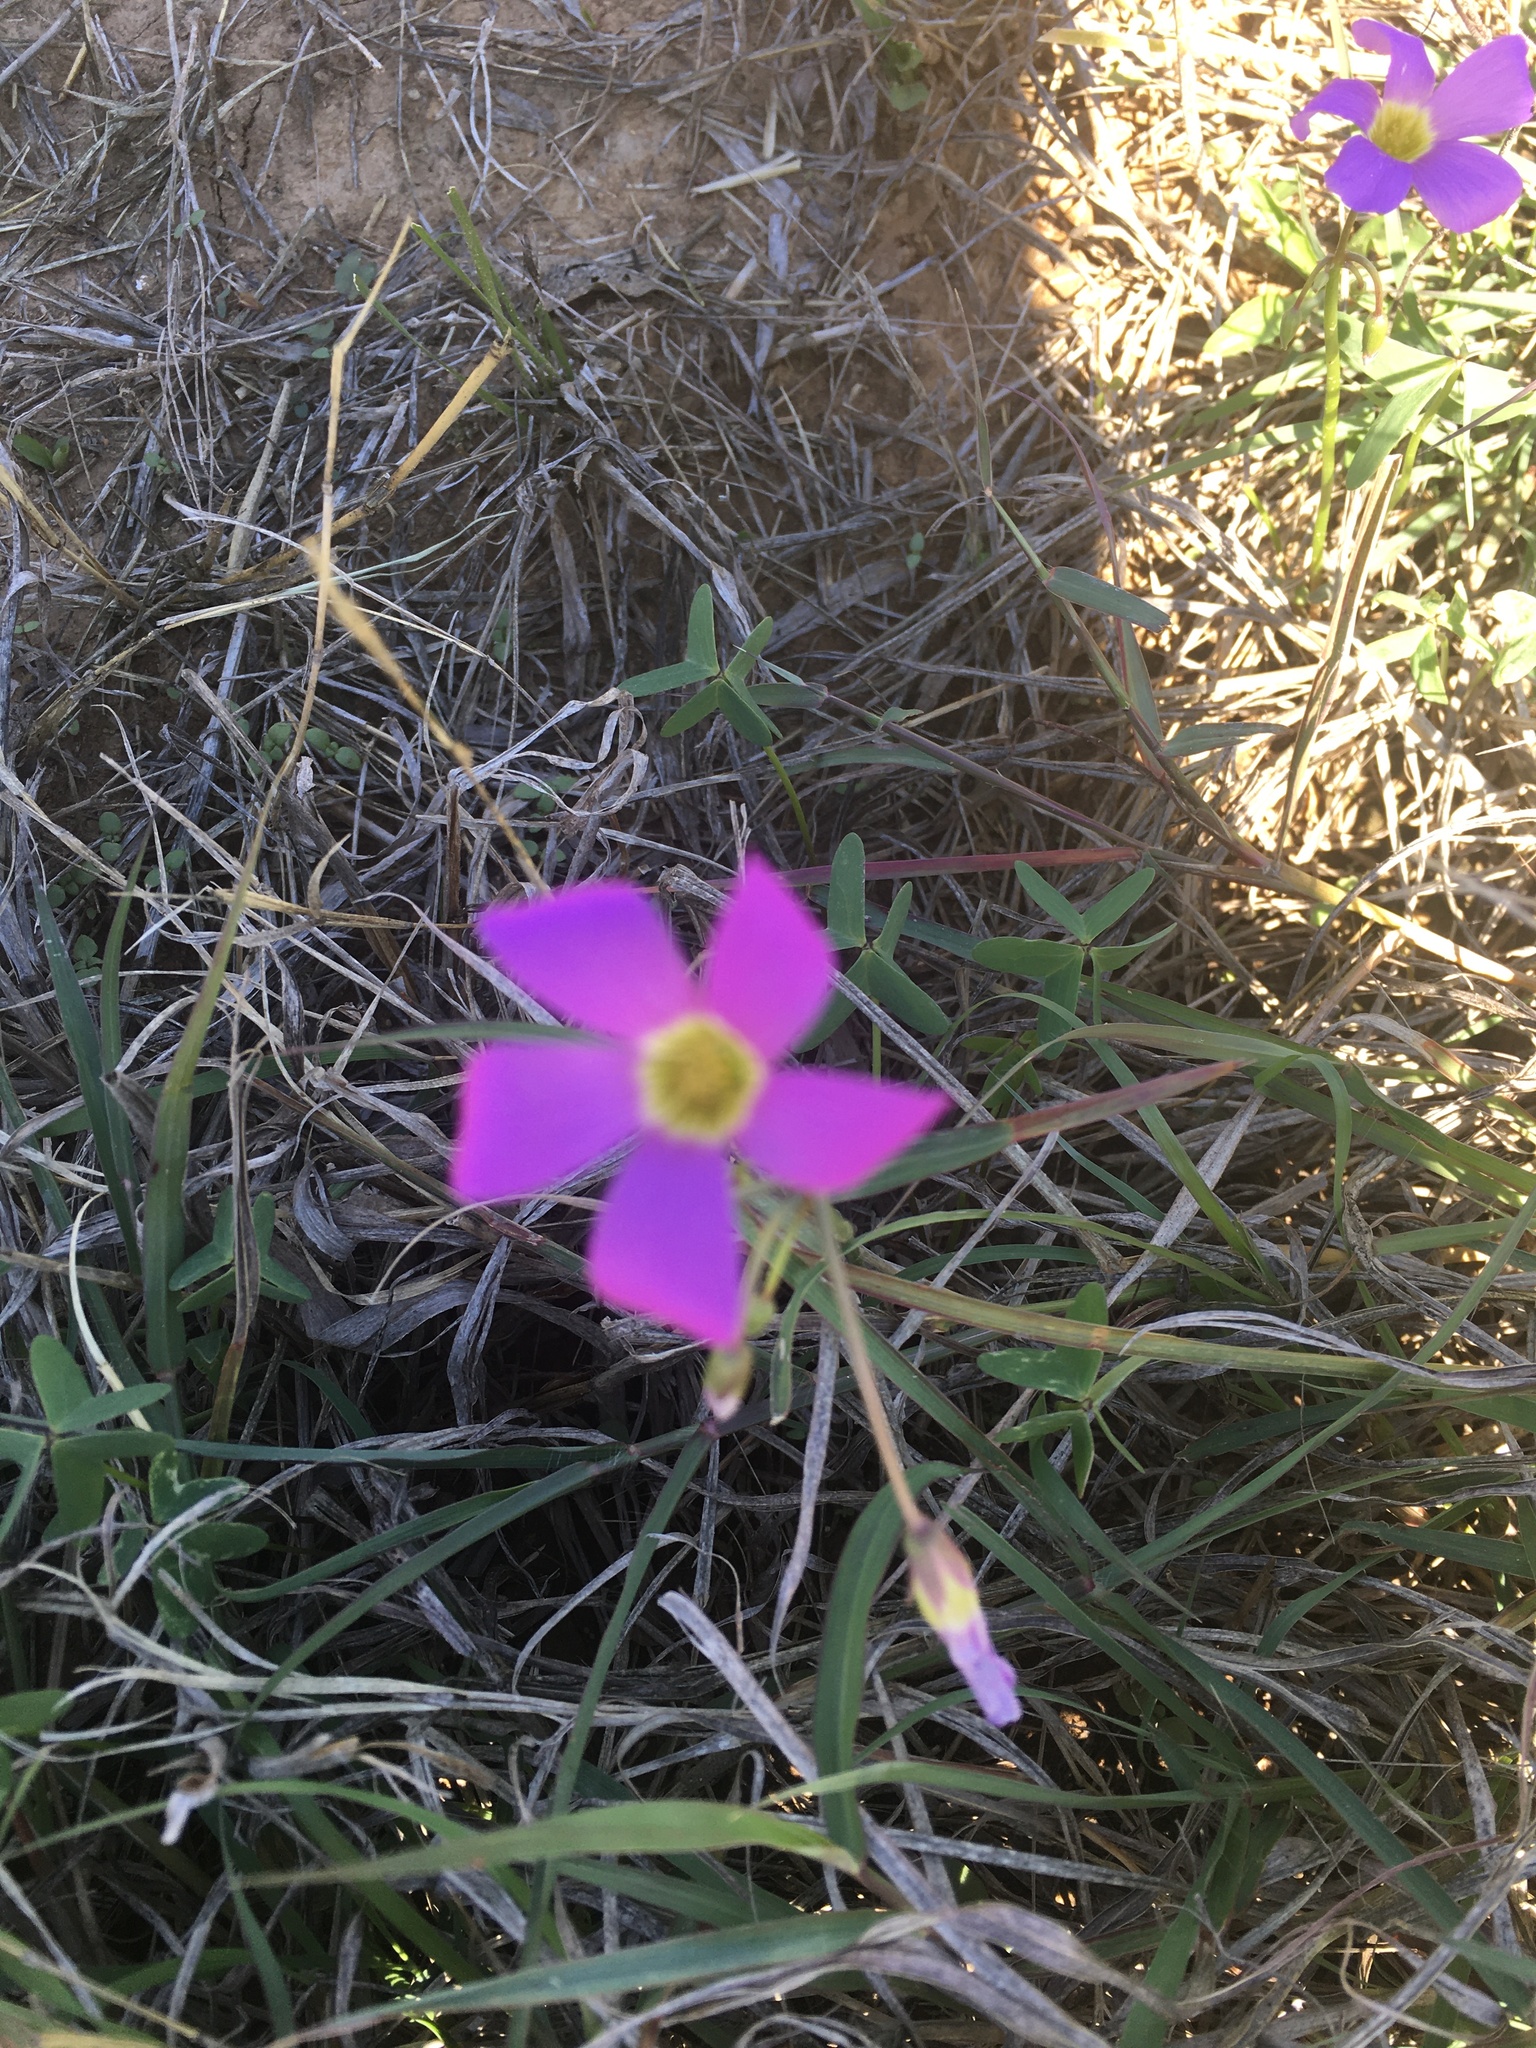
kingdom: Plantae
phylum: Tracheophyta
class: Magnoliopsida
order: Oxalidales
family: Oxalidaceae
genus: Oxalis
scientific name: Oxalis drummondii
